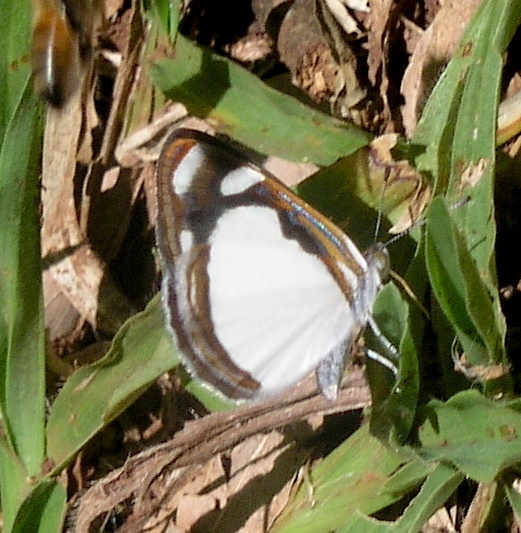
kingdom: Animalia
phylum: Arthropoda
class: Insecta
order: Lepidoptera
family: Nymphalidae
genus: Dynamine
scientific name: Dynamine agacles
